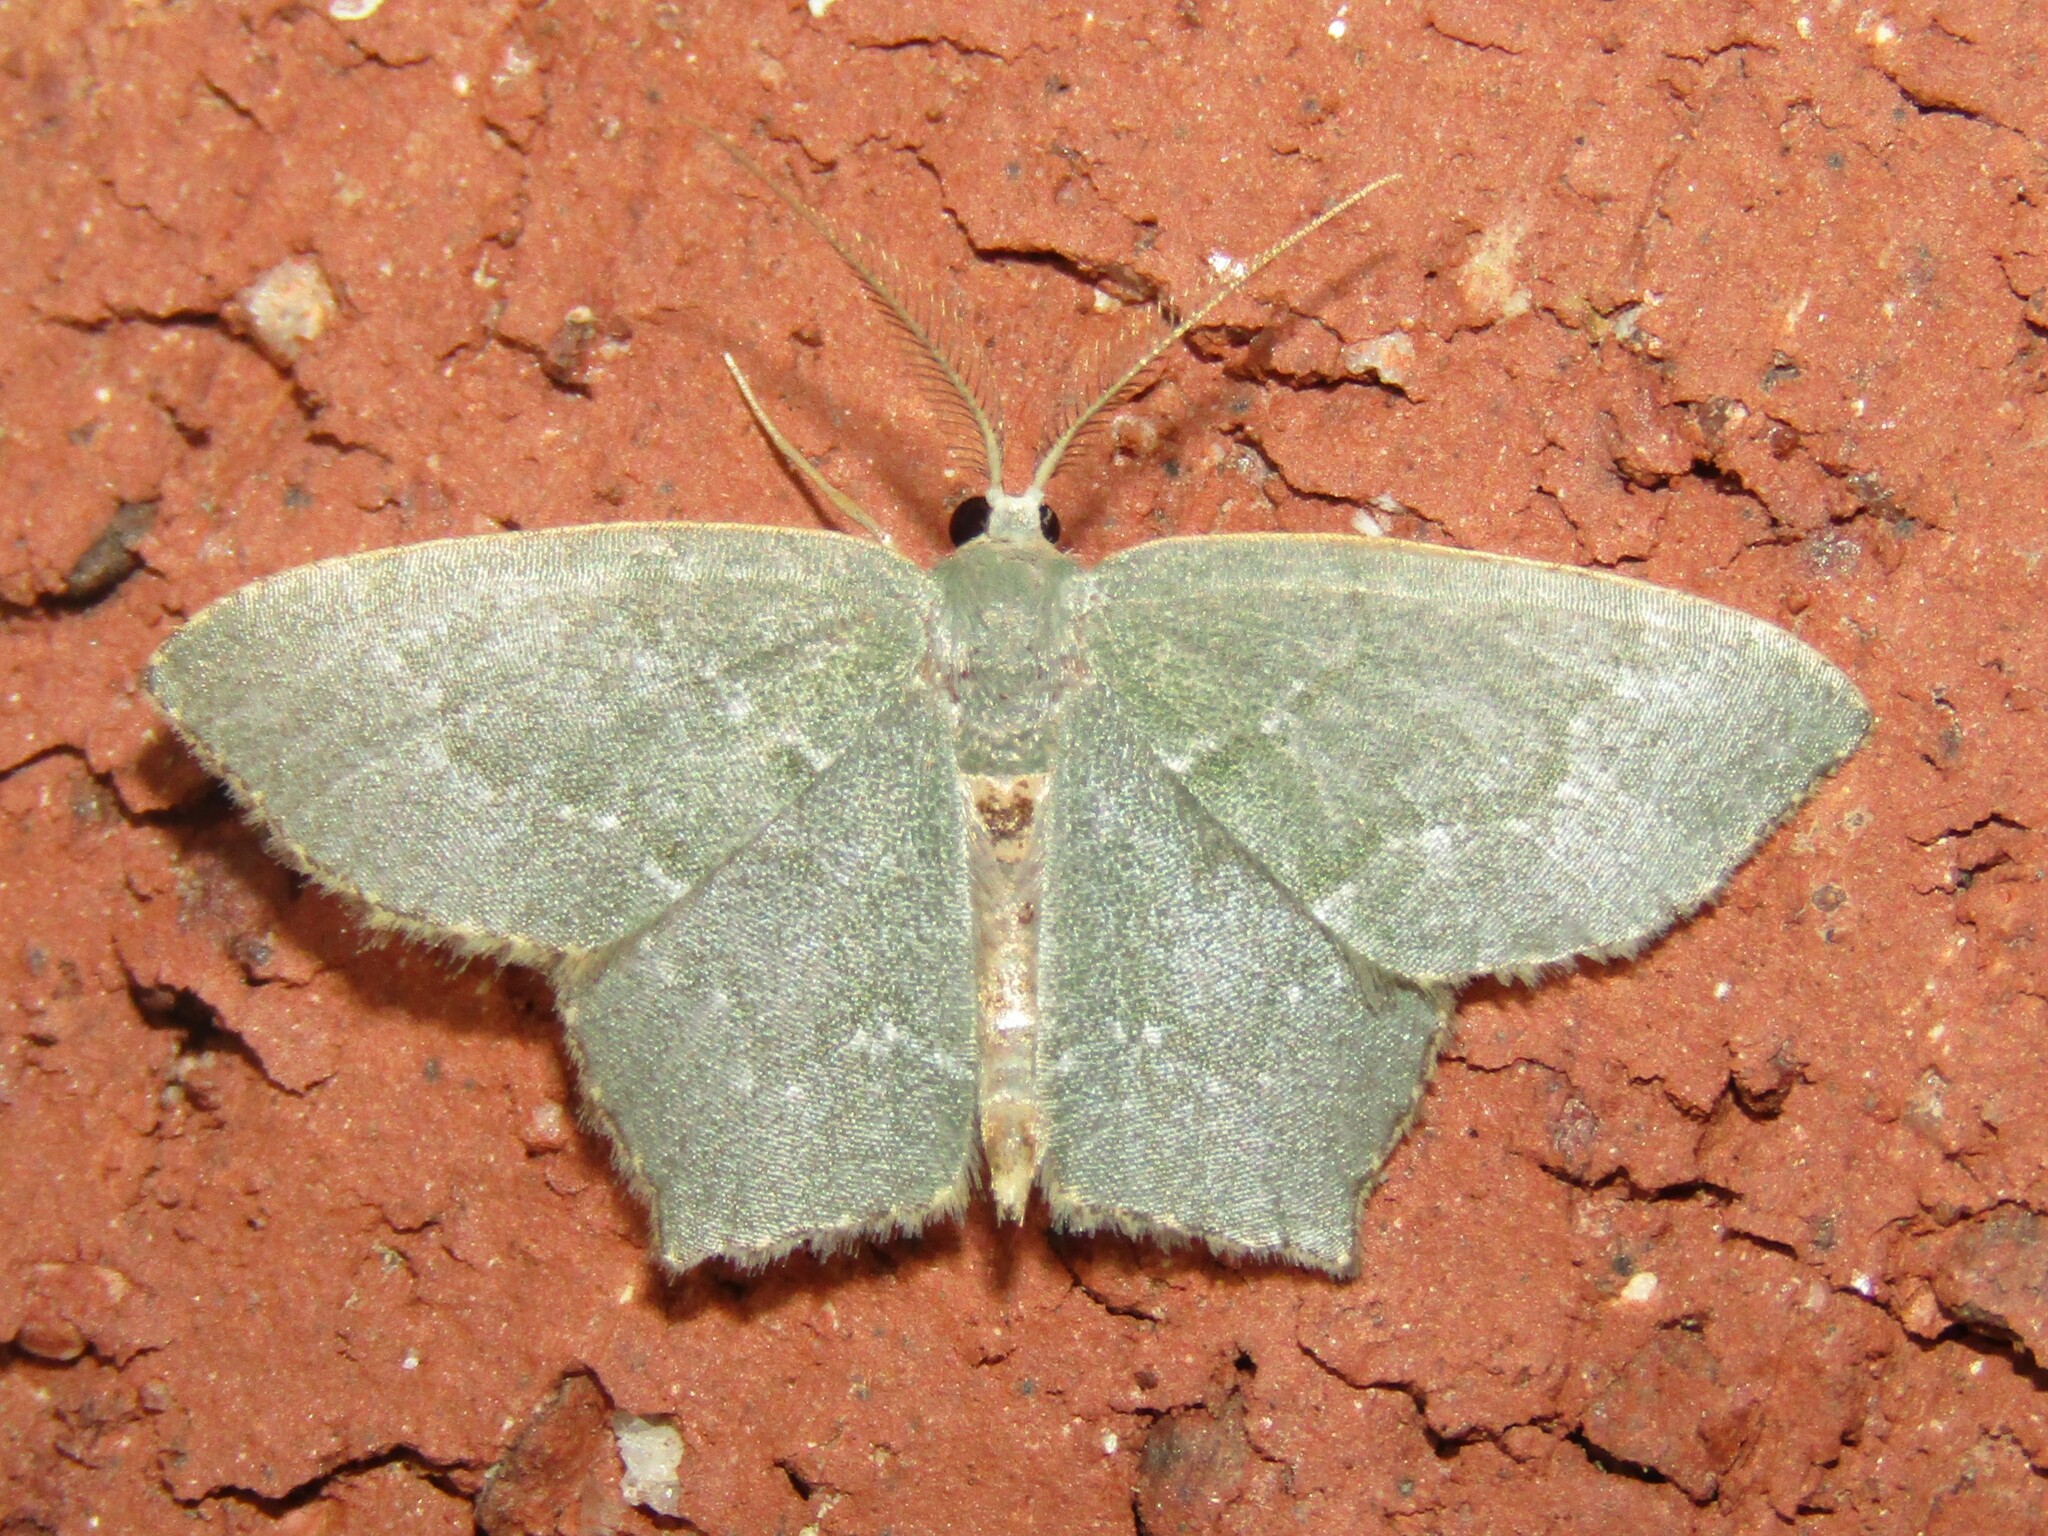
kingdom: Animalia
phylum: Arthropoda
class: Insecta
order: Lepidoptera
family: Geometridae
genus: Chloropteryx
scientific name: Chloropteryx tepperaria
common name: Angle winged emerald moth
